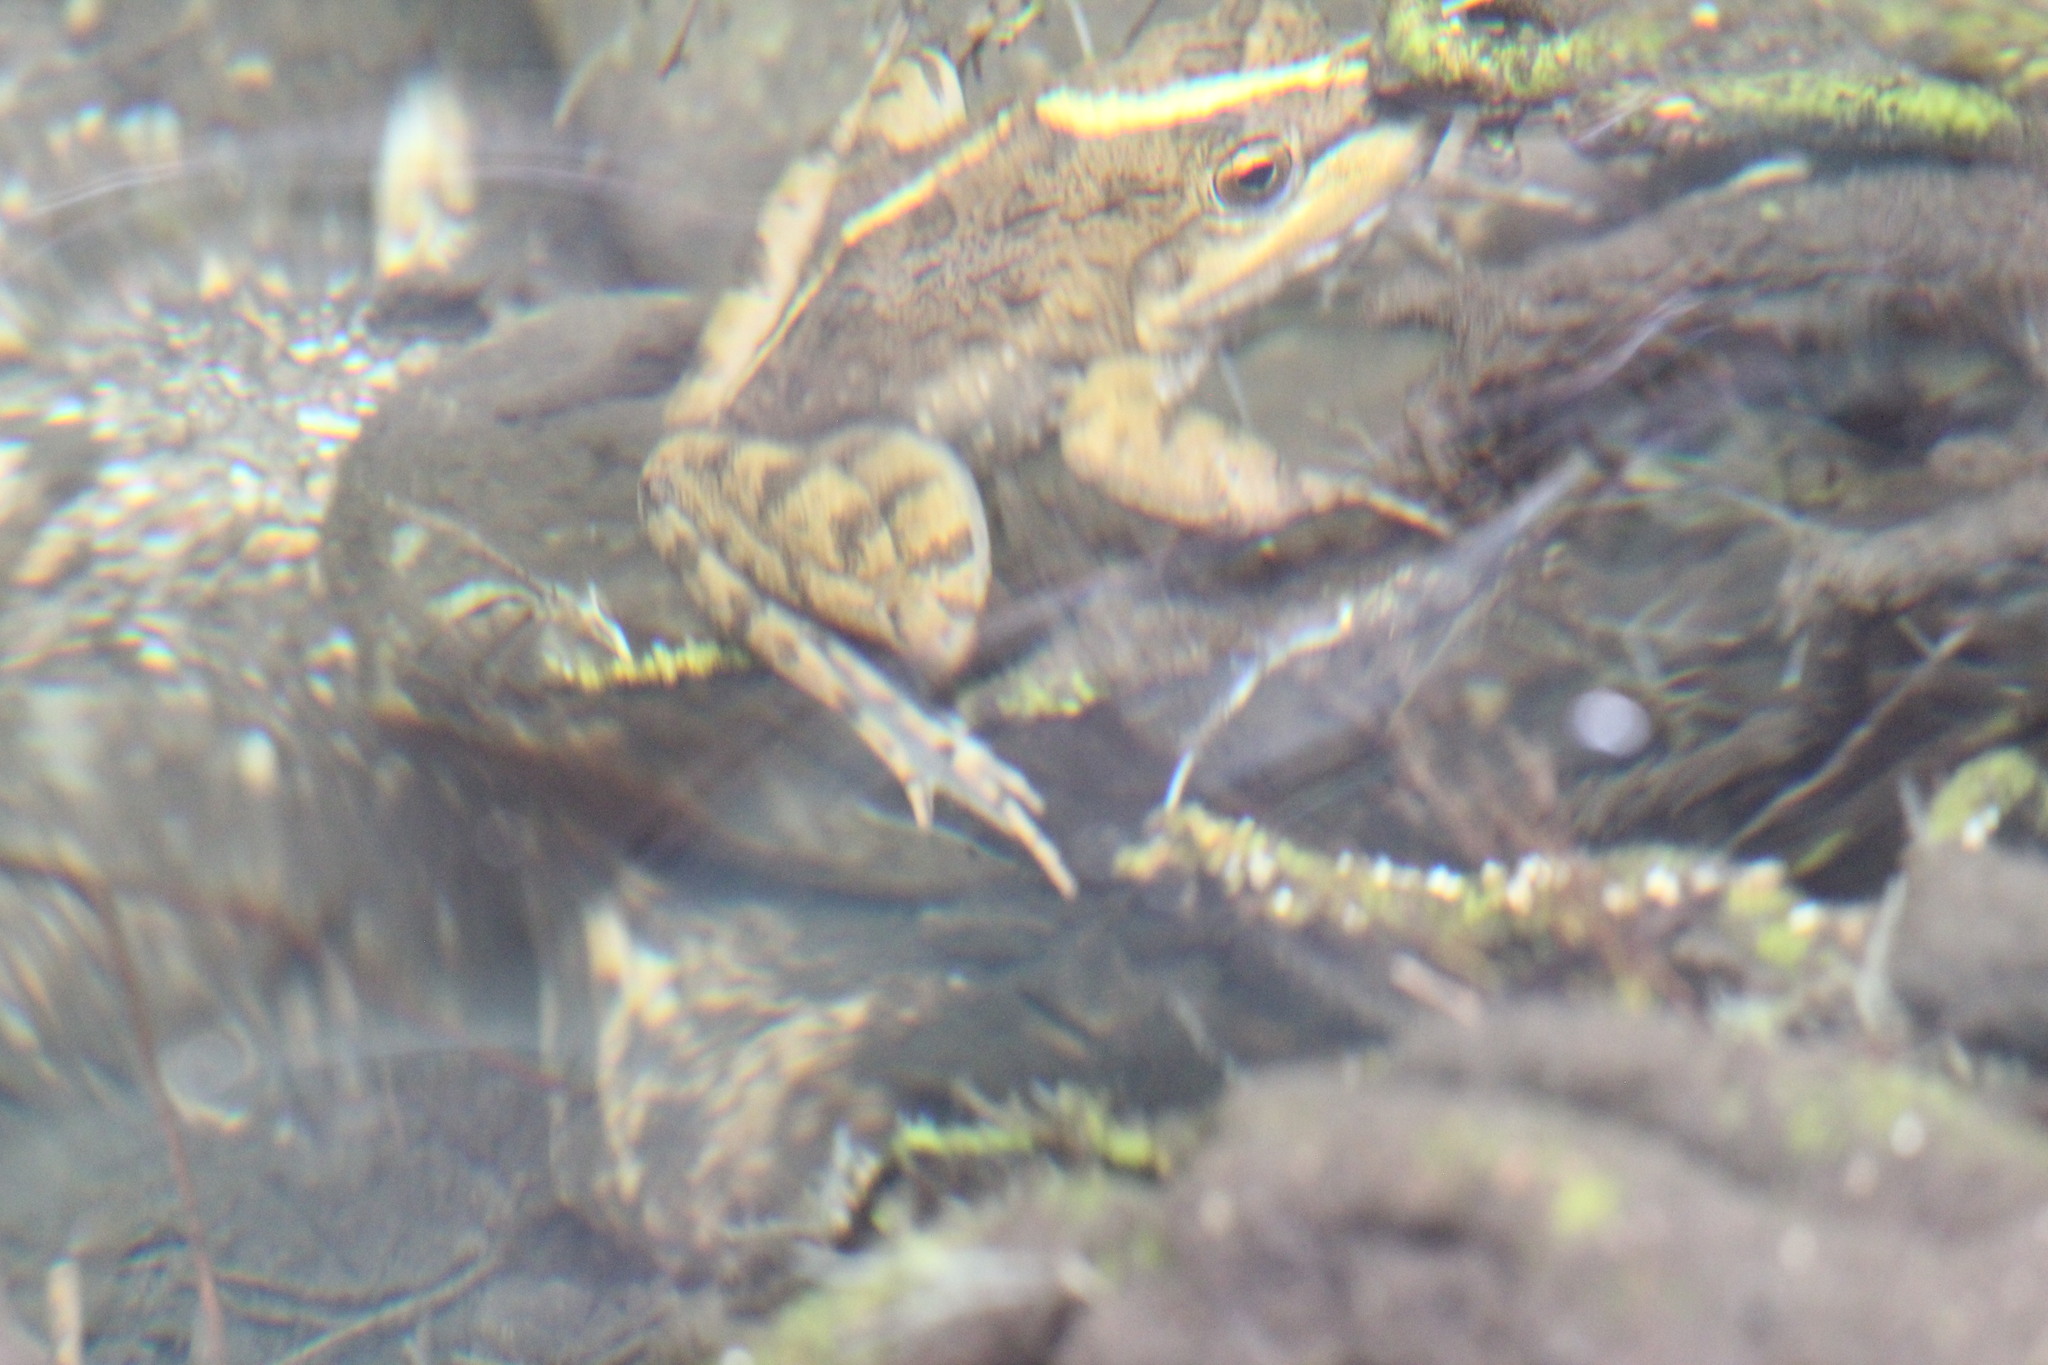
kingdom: Animalia
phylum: Chordata
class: Amphibia
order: Anura
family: Pyxicephalidae
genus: Amietia
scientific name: Amietia fuscigula
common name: Cape rana
